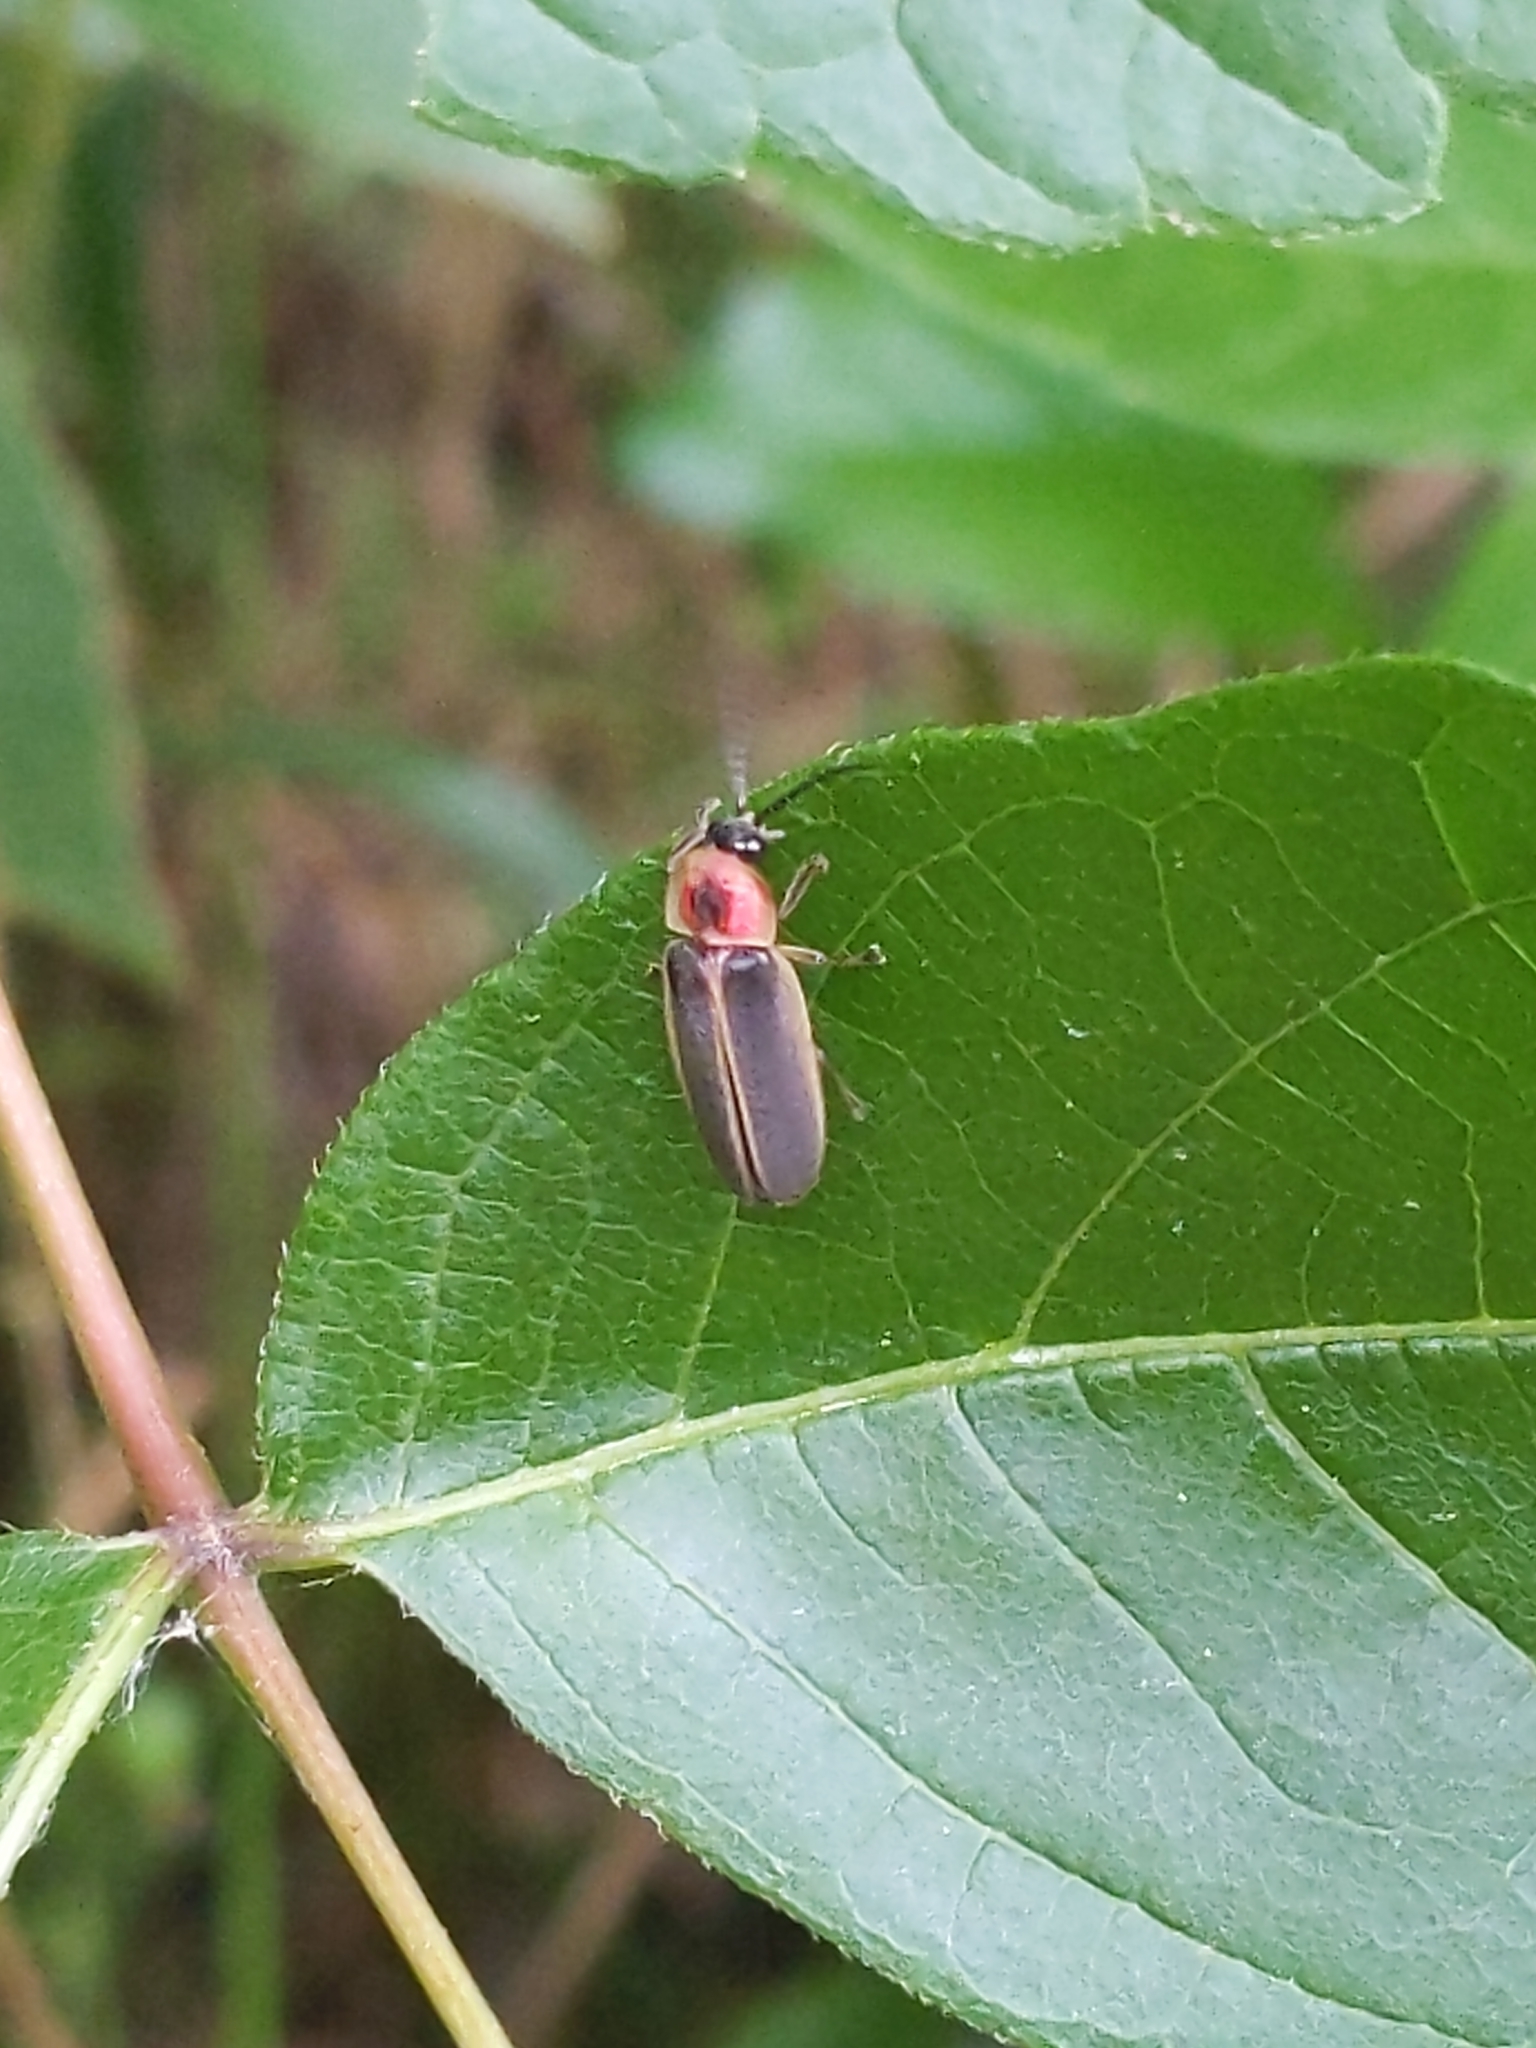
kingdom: Animalia
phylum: Arthropoda
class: Insecta
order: Coleoptera
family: Lampyridae
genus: Photinus
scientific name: Photinus pyralis
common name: Big dipper firefly
